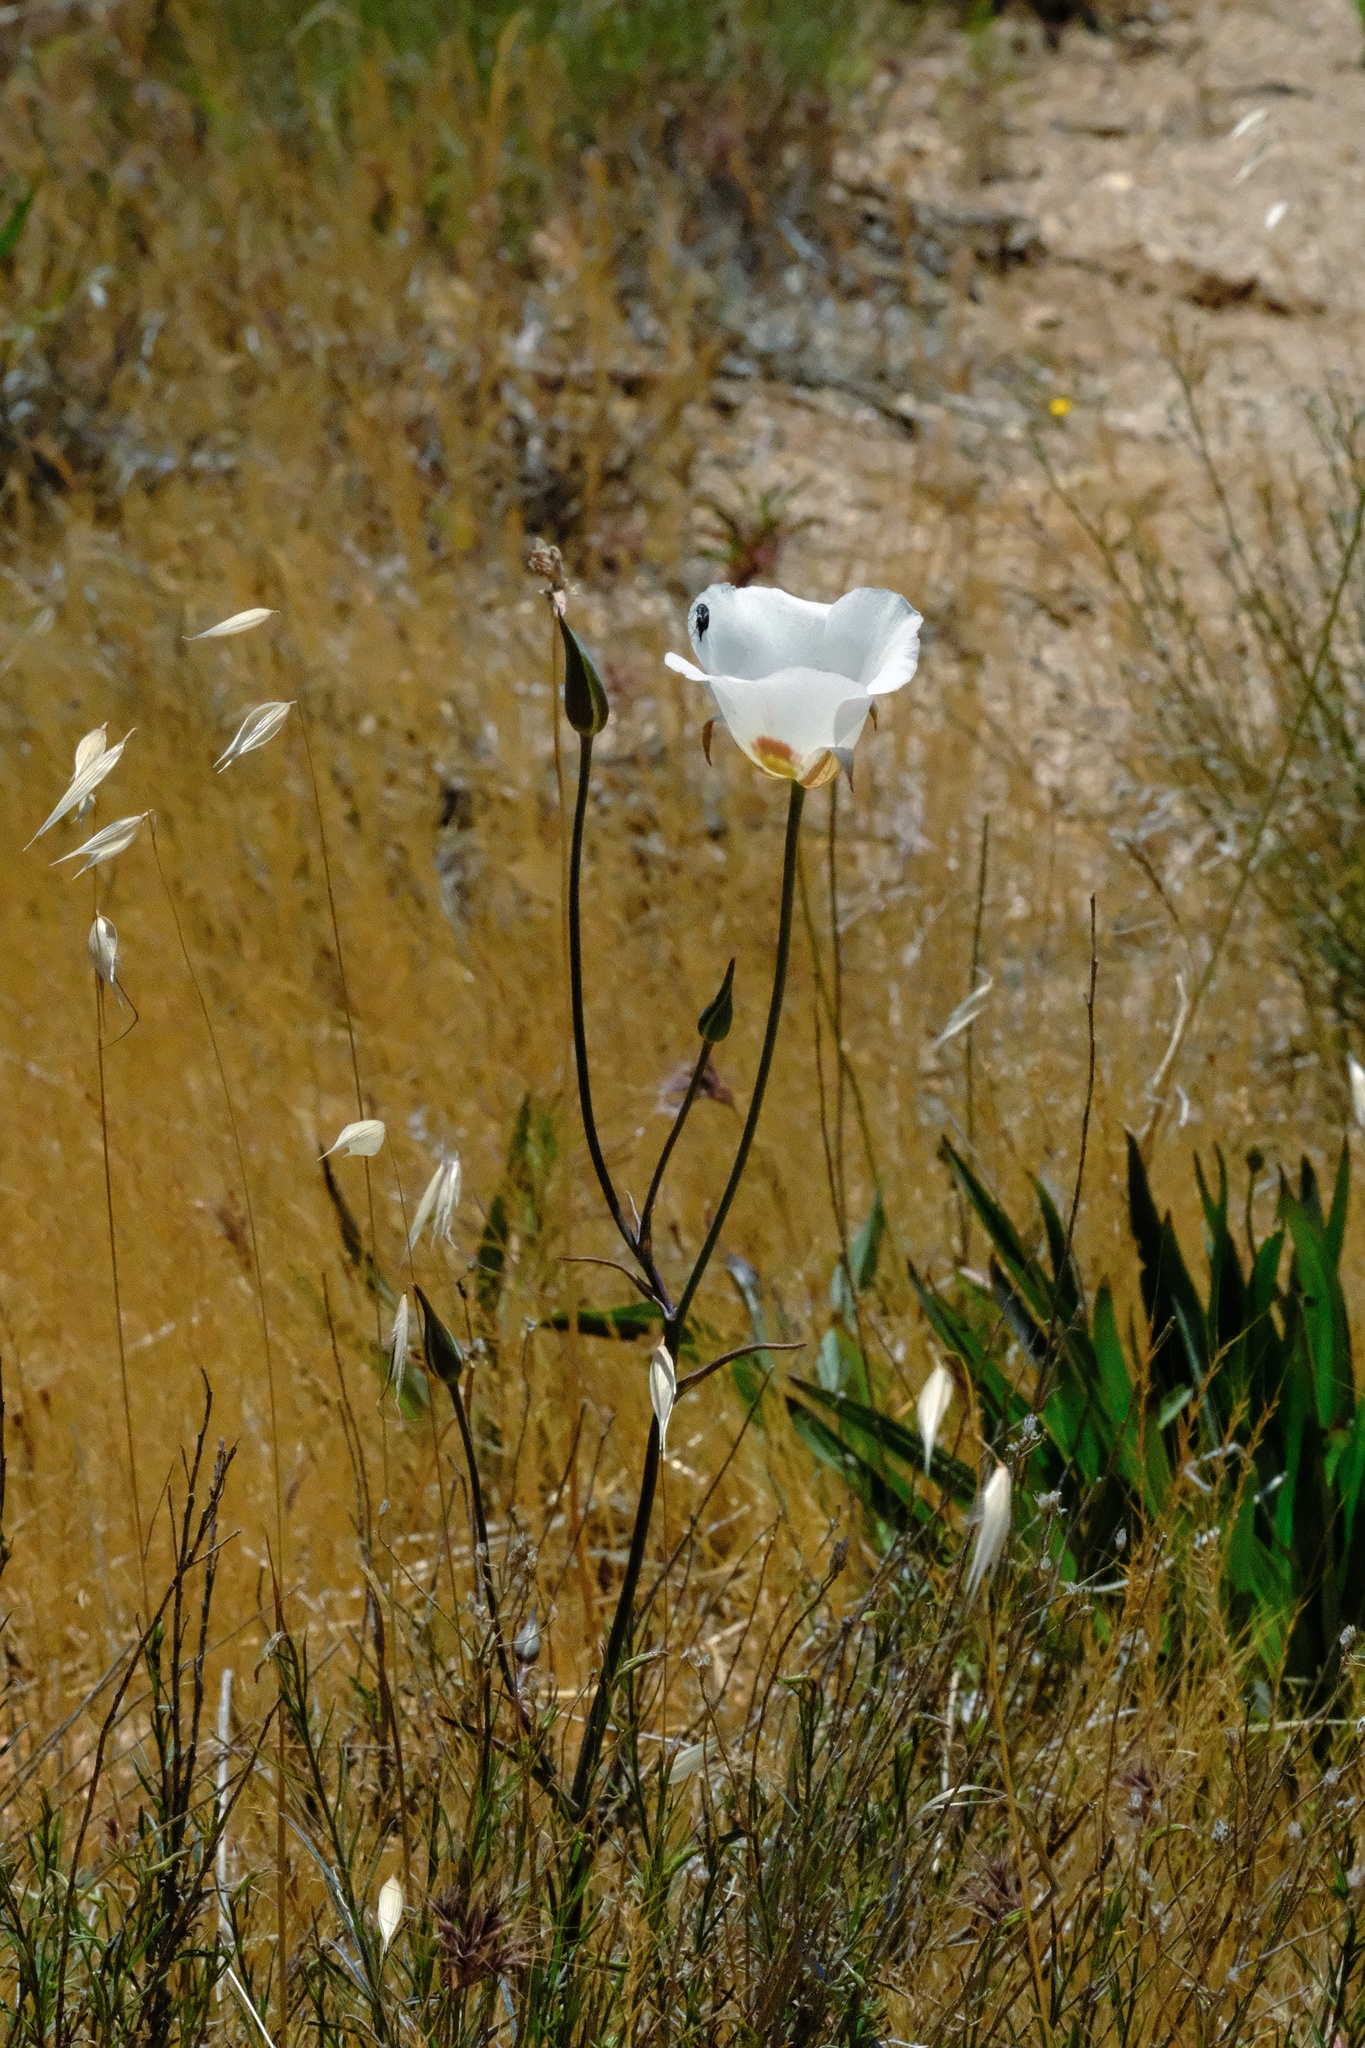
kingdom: Plantae
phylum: Tracheophyta
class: Liliopsida
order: Liliales
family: Liliaceae
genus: Calochortus
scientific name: Calochortus dunnii
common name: Dunn's mariposa-lily
